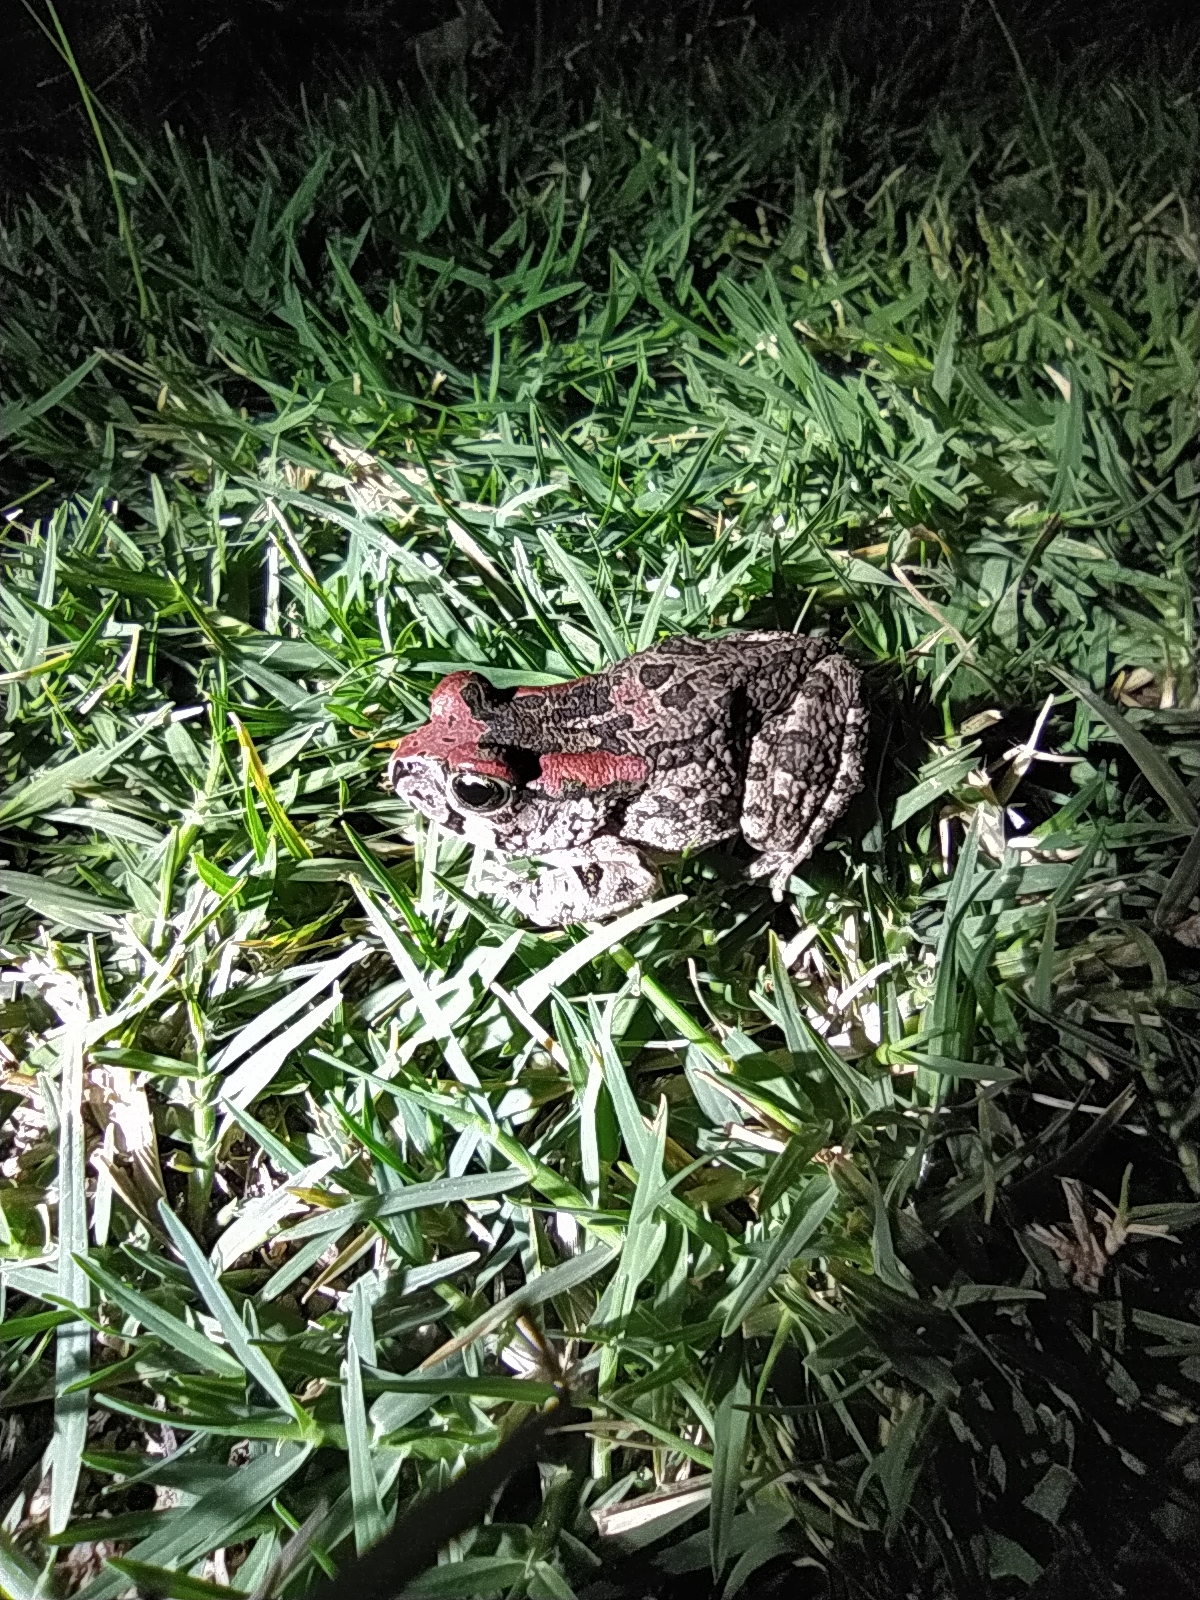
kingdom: Animalia
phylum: Chordata
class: Amphibia
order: Anura
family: Bufonidae
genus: Sclerophrys
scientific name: Sclerophrys capensis
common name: Ranger’s toad
